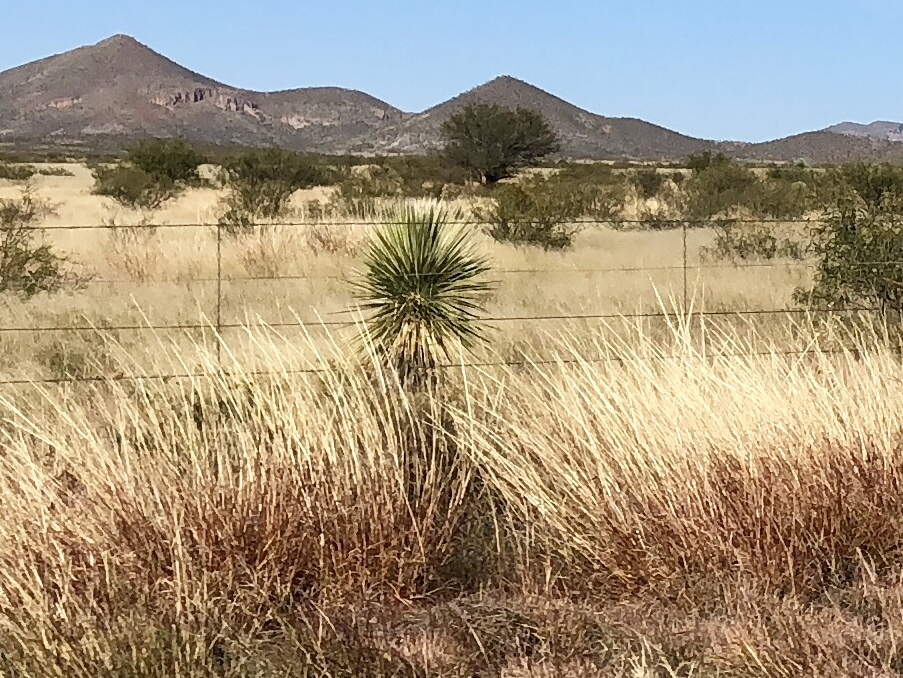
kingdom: Plantae
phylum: Tracheophyta
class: Liliopsida
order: Asparagales
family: Asparagaceae
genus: Yucca
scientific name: Yucca elata
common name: Palmella
